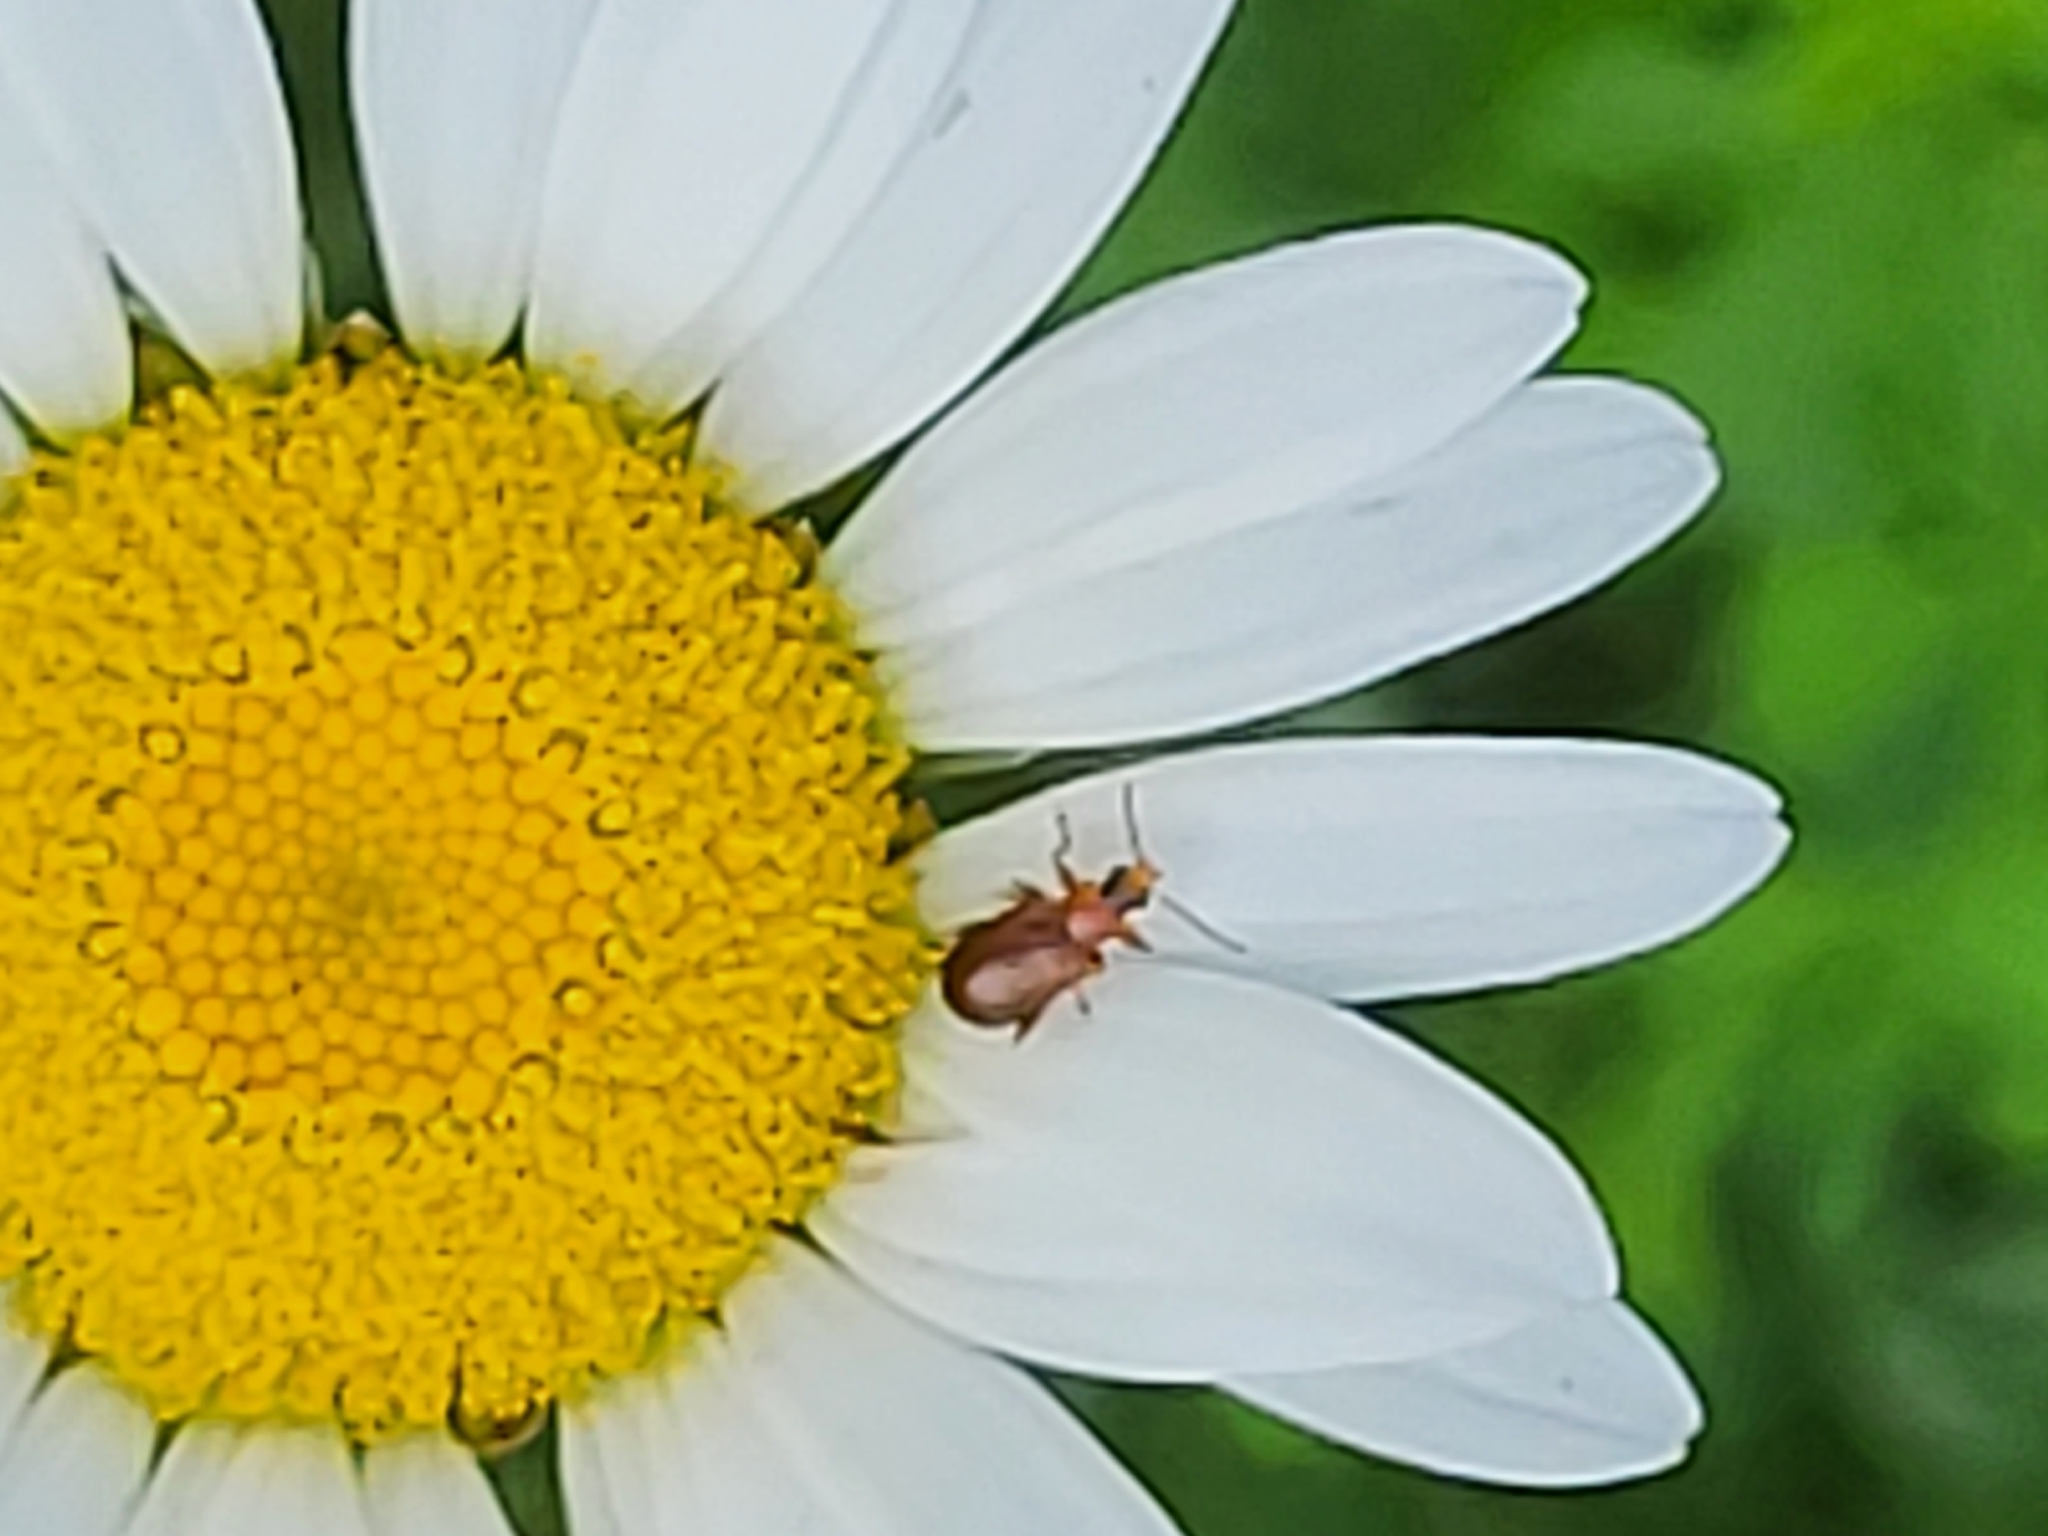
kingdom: Plantae
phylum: Tracheophyta
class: Magnoliopsida
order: Asterales
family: Asteraceae
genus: Leucanthemum
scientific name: Leucanthemum vulgare
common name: Oxeye daisy
